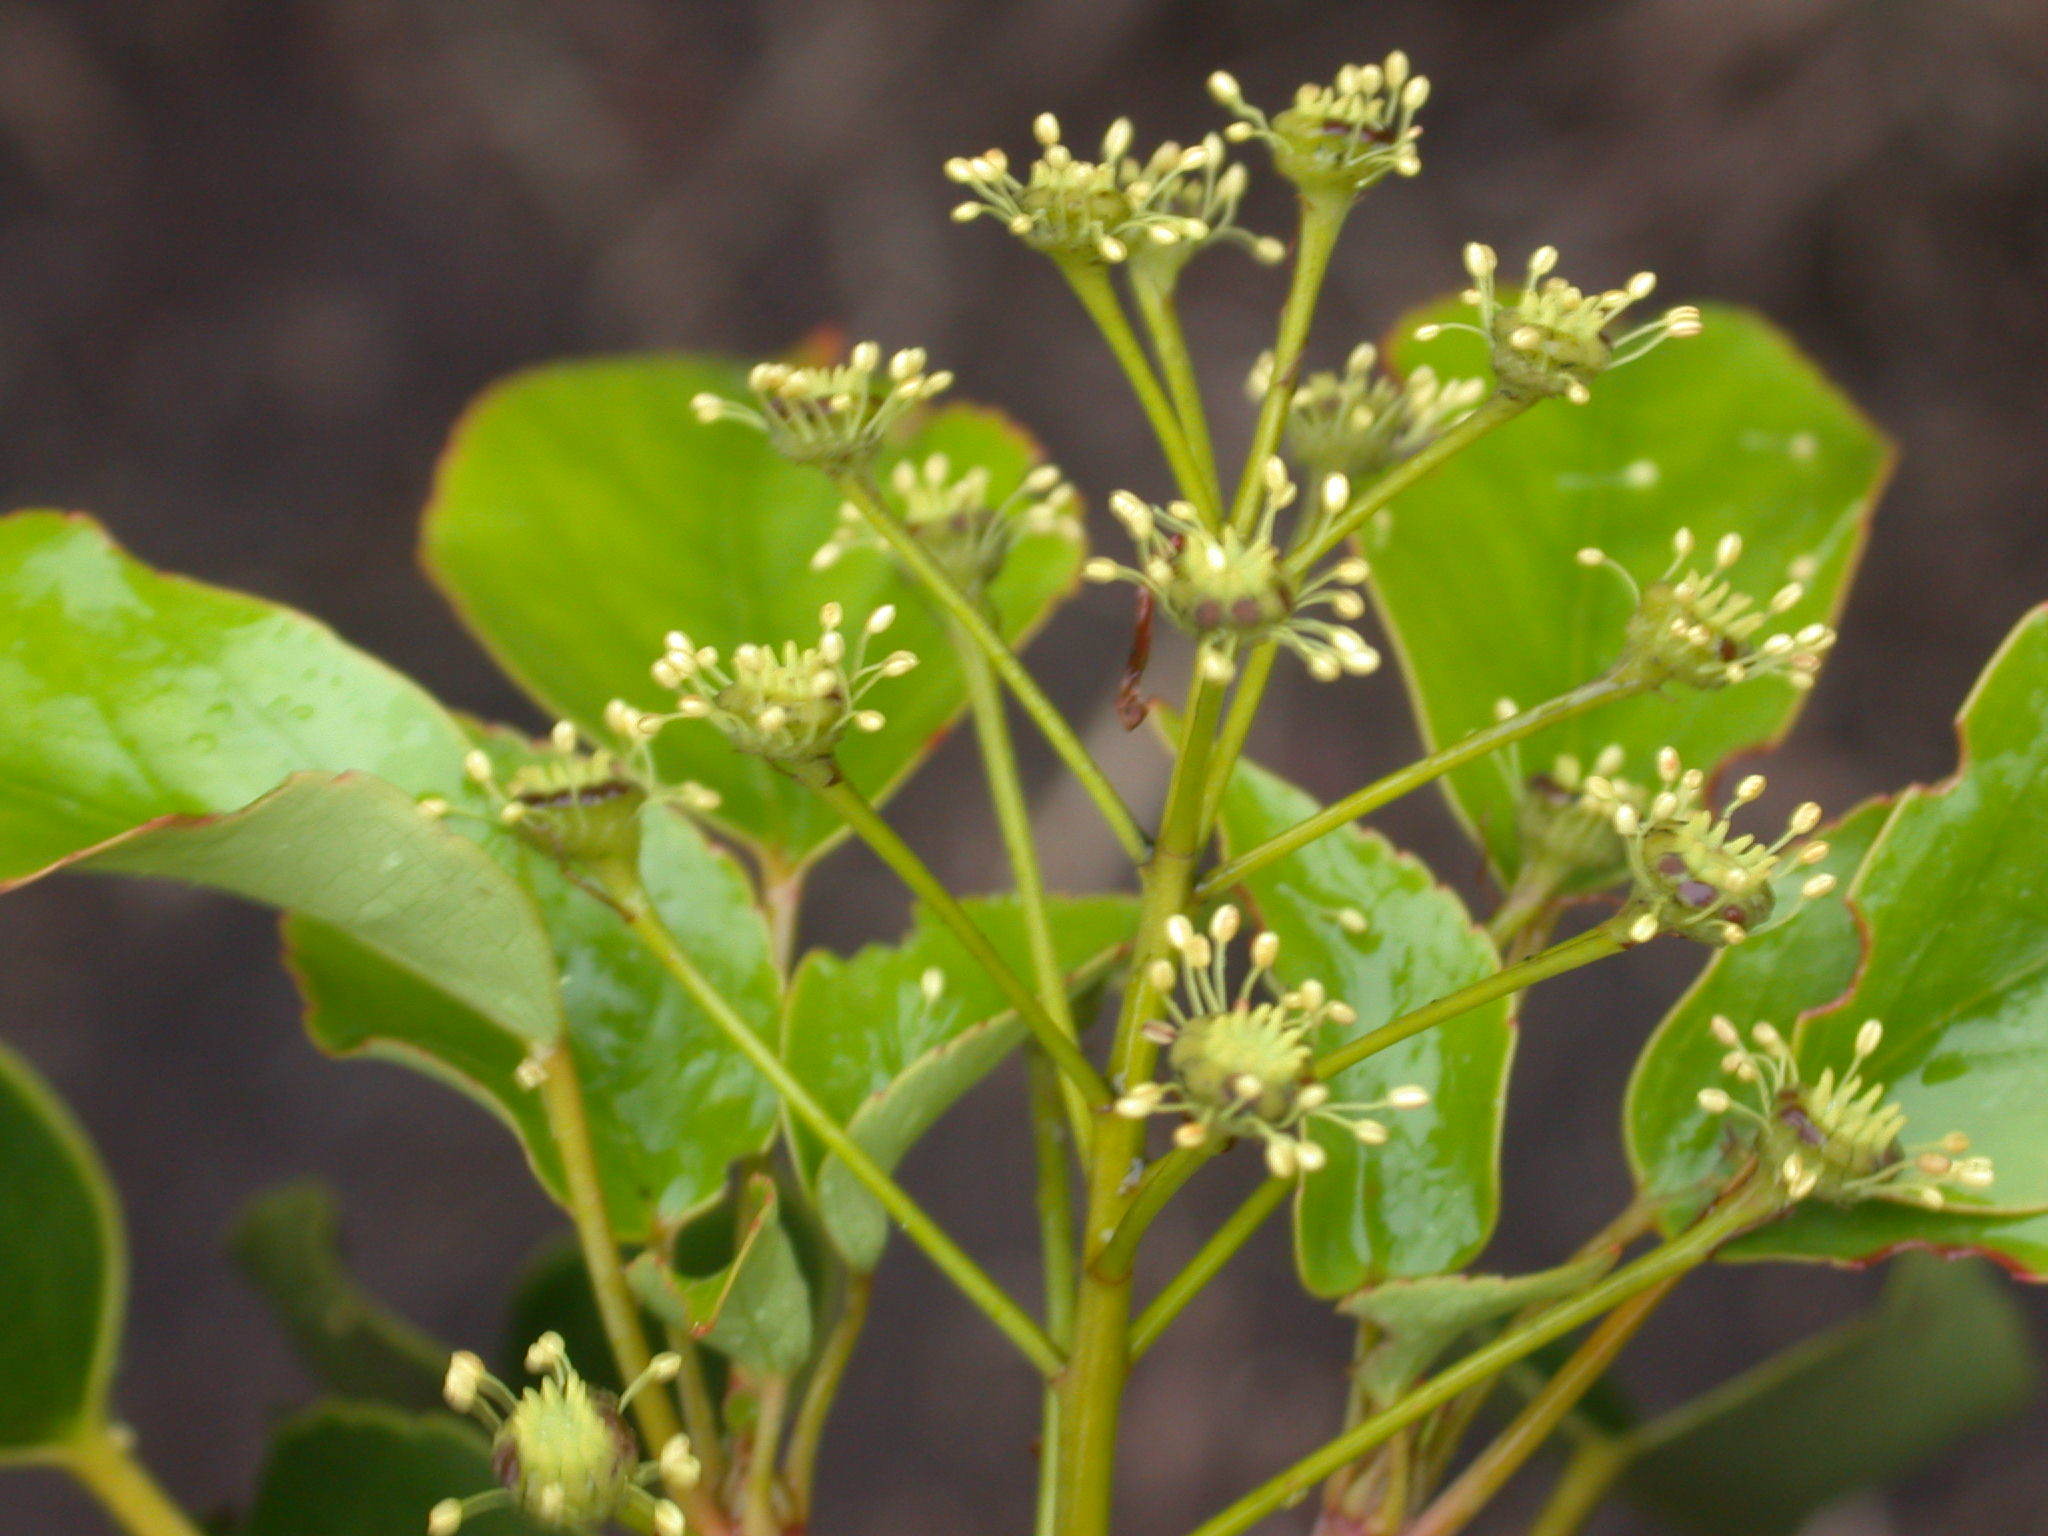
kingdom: Plantae
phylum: Tracheophyta
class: Magnoliopsida
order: Trochodendrales
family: Trochodendraceae
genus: Trochodendron
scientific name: Trochodendron aralioides
